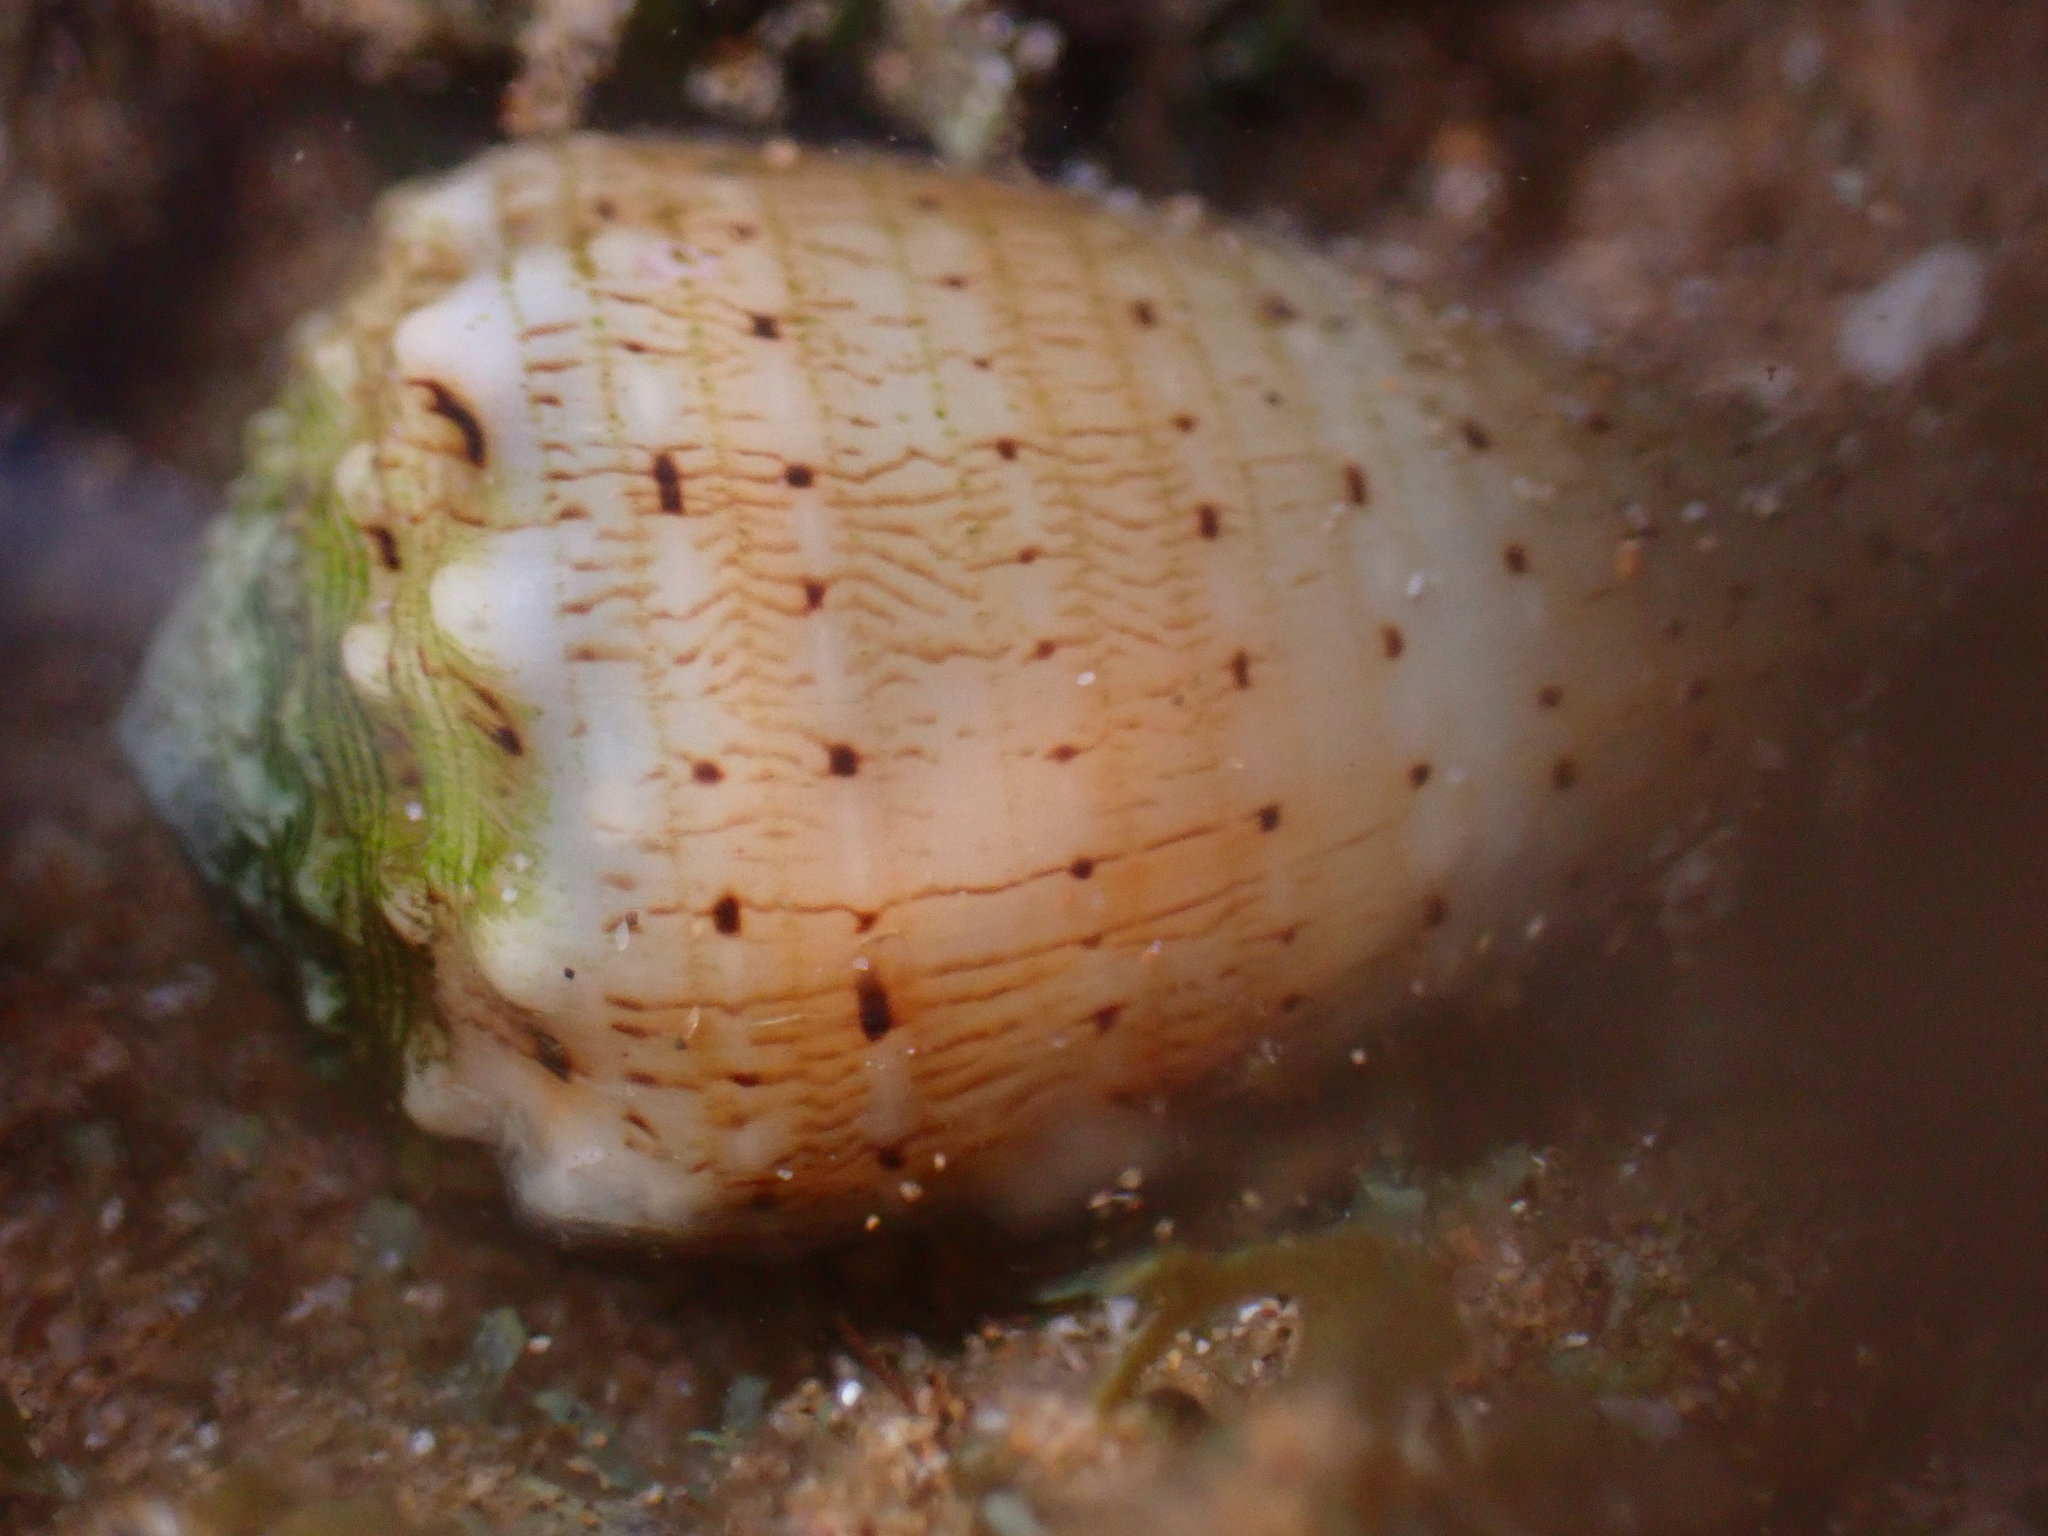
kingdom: Animalia
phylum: Mollusca
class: Gastropoda
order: Neogastropoda
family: Conidae
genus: Conus
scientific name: Conus abbreviatus
